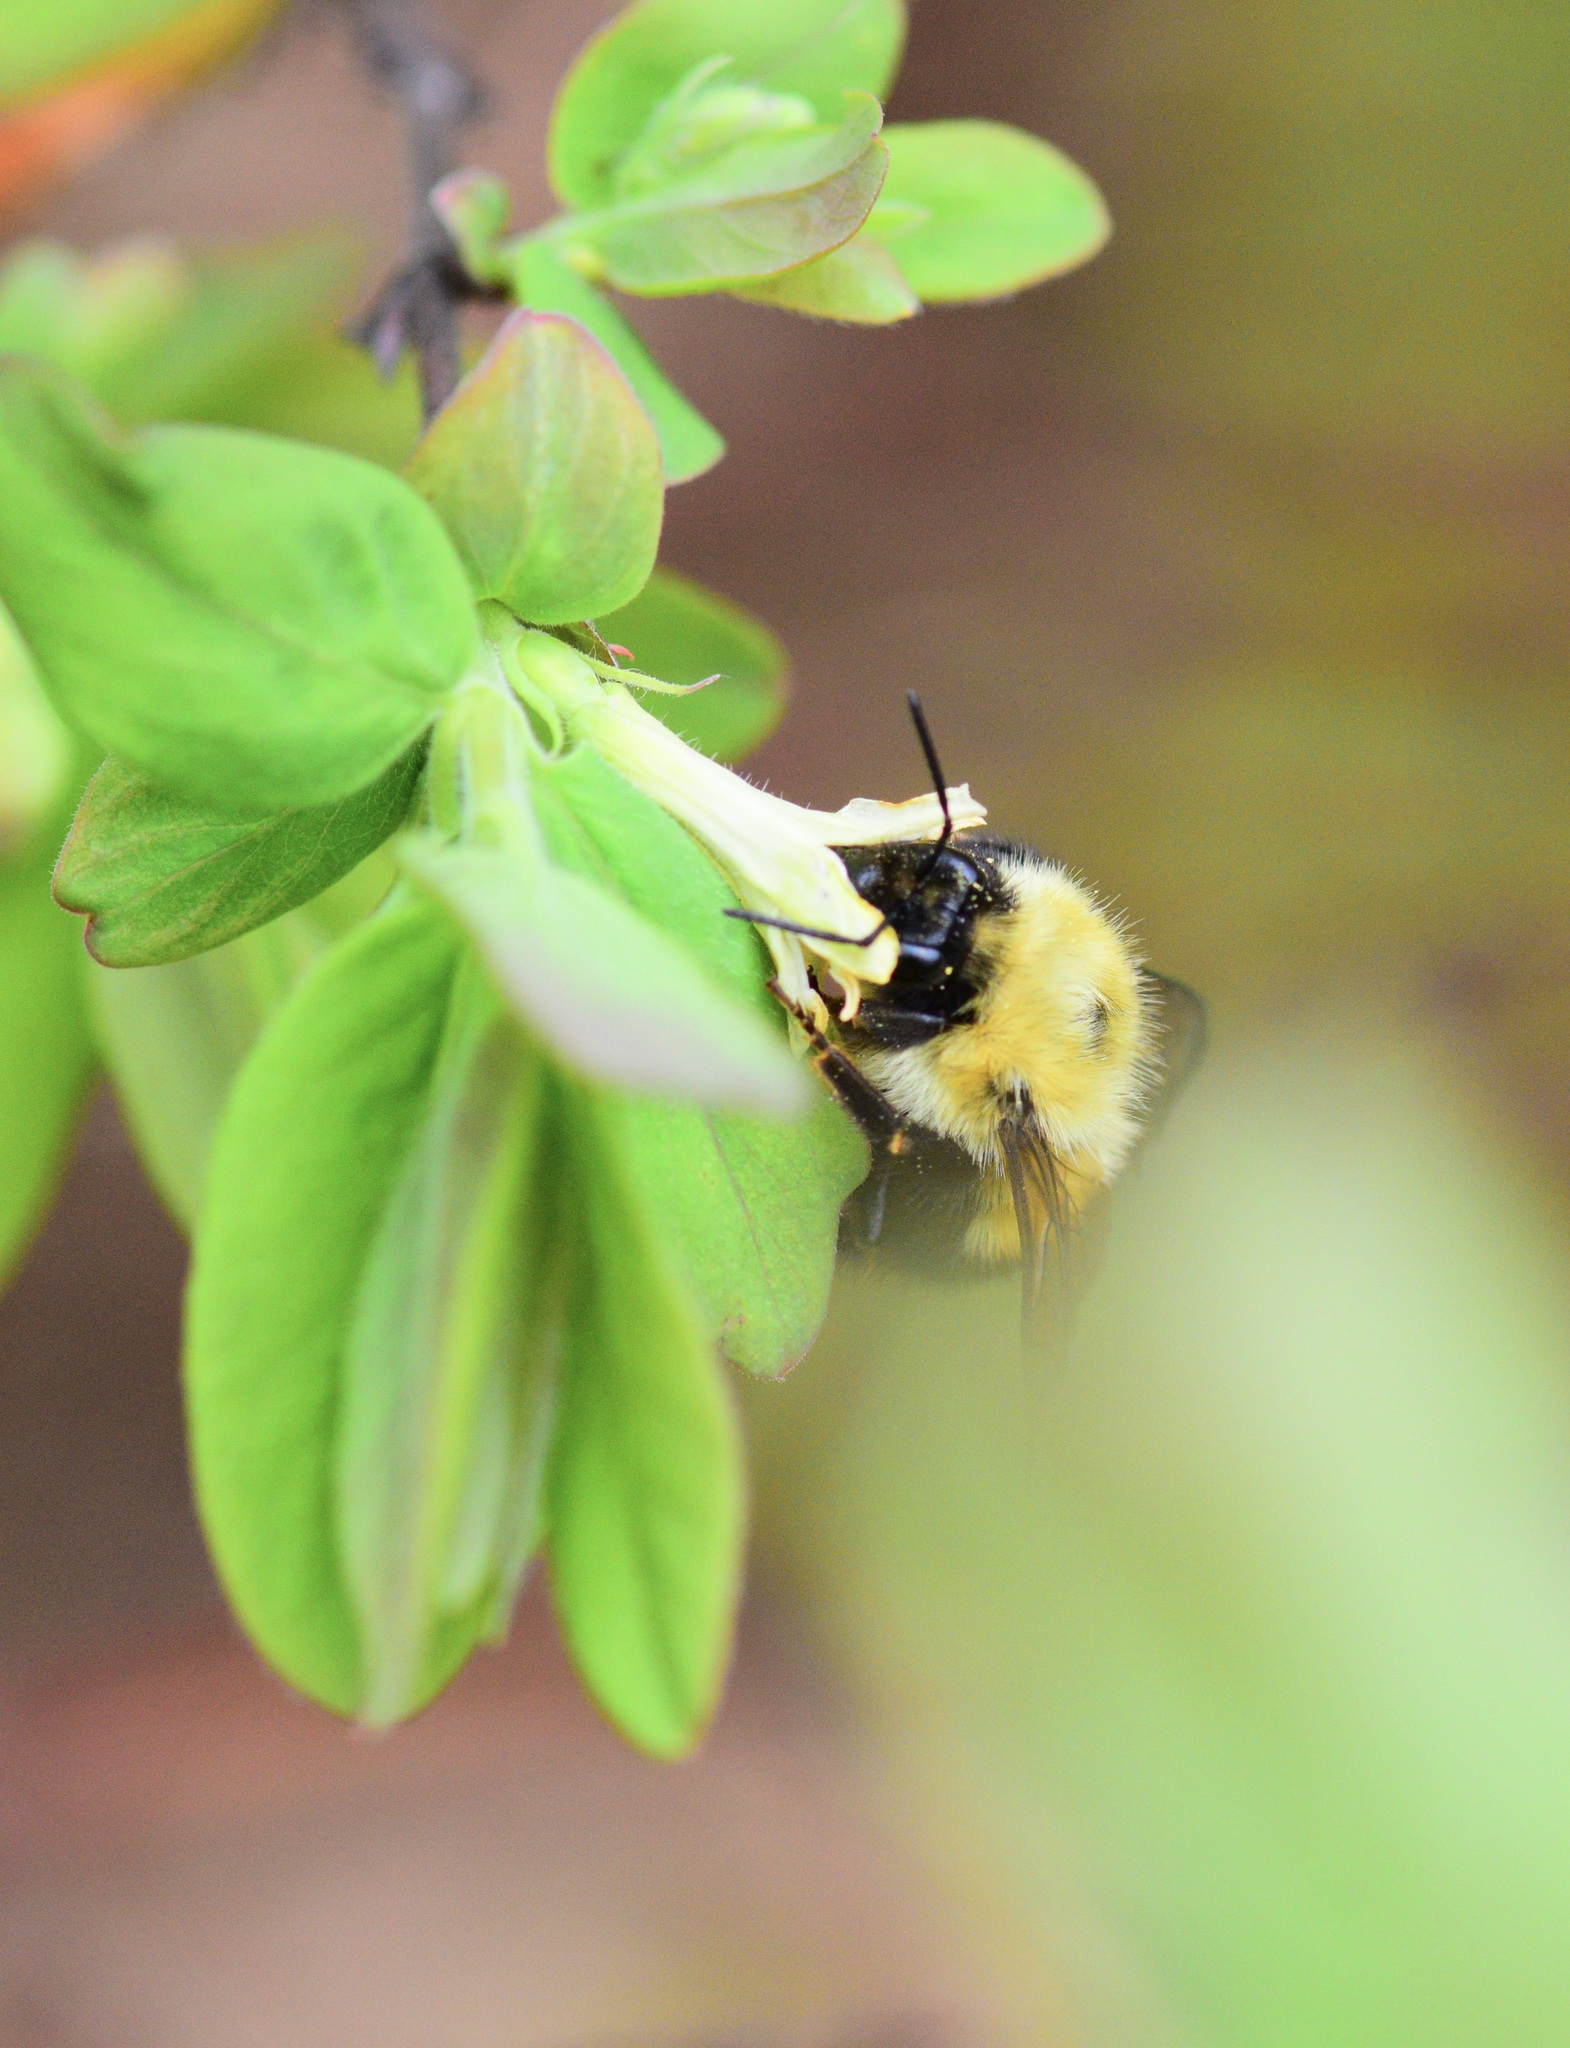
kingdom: Animalia
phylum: Arthropoda
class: Insecta
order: Hymenoptera
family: Apidae
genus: Bombus
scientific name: Bombus perplexus
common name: Confusing bumble bee
